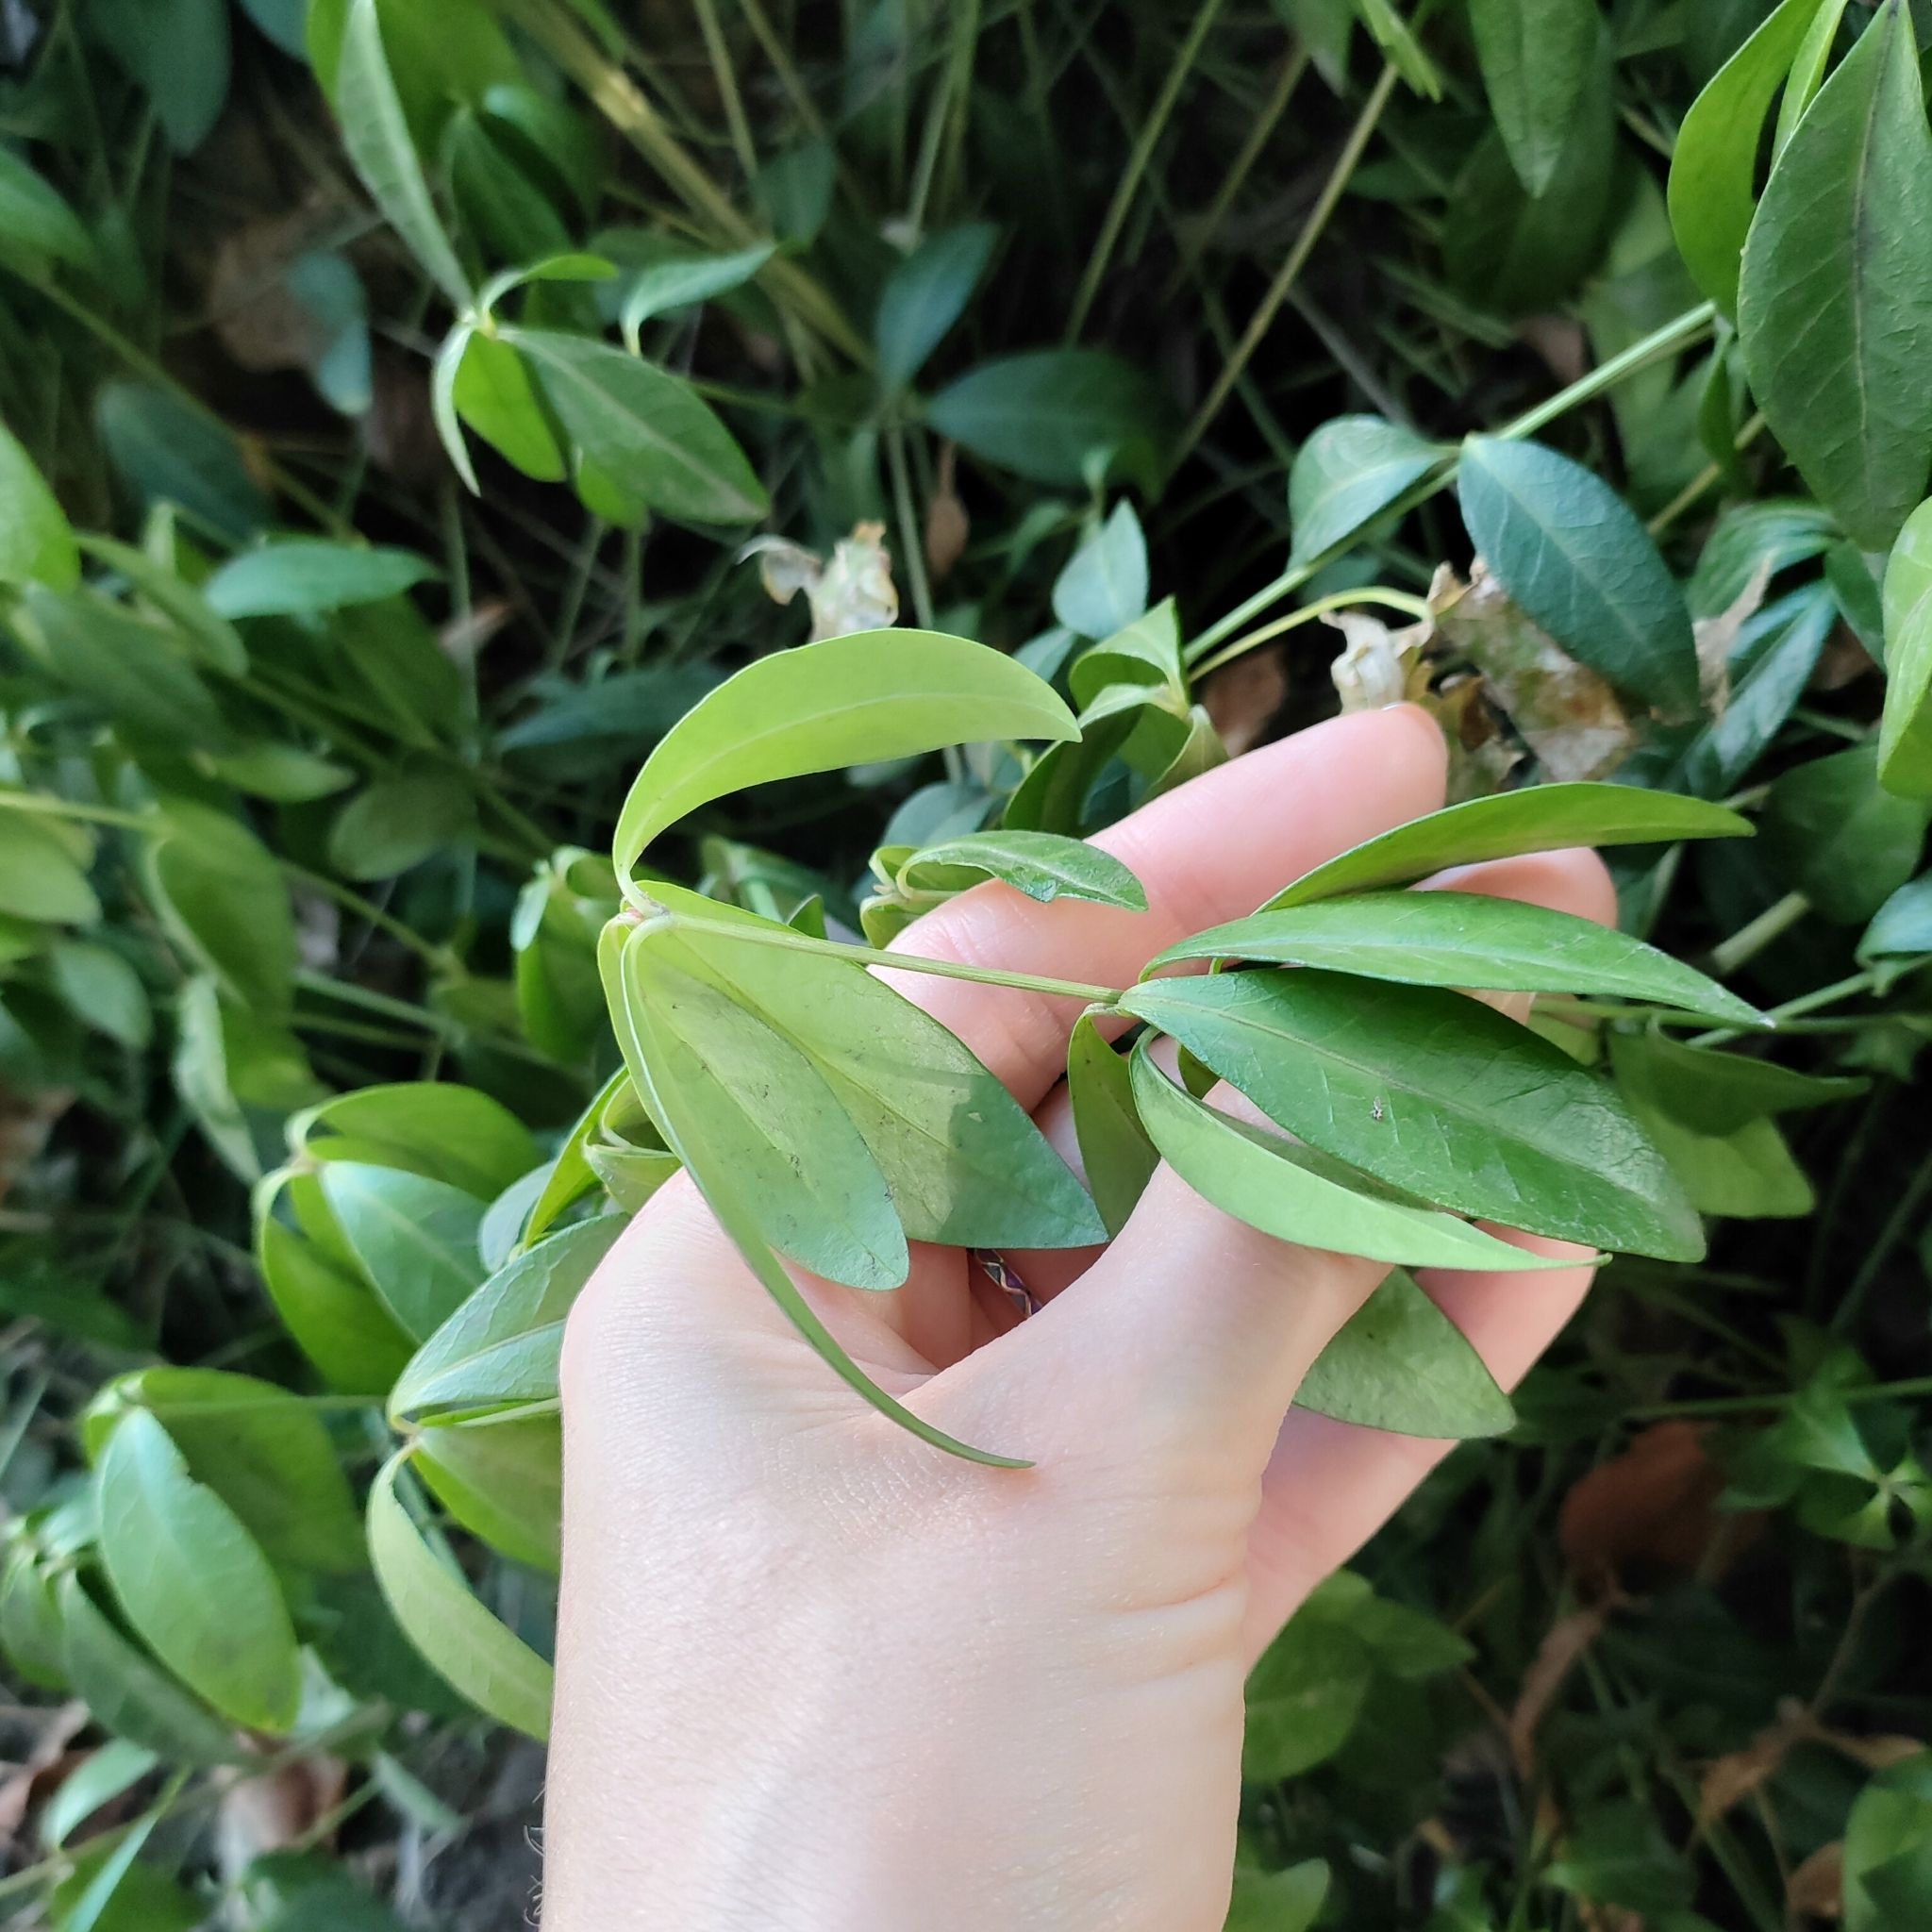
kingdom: Plantae
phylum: Tracheophyta
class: Magnoliopsida
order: Gentianales
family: Apocynaceae
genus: Vinca
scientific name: Vinca minor
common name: Lesser periwinkle
